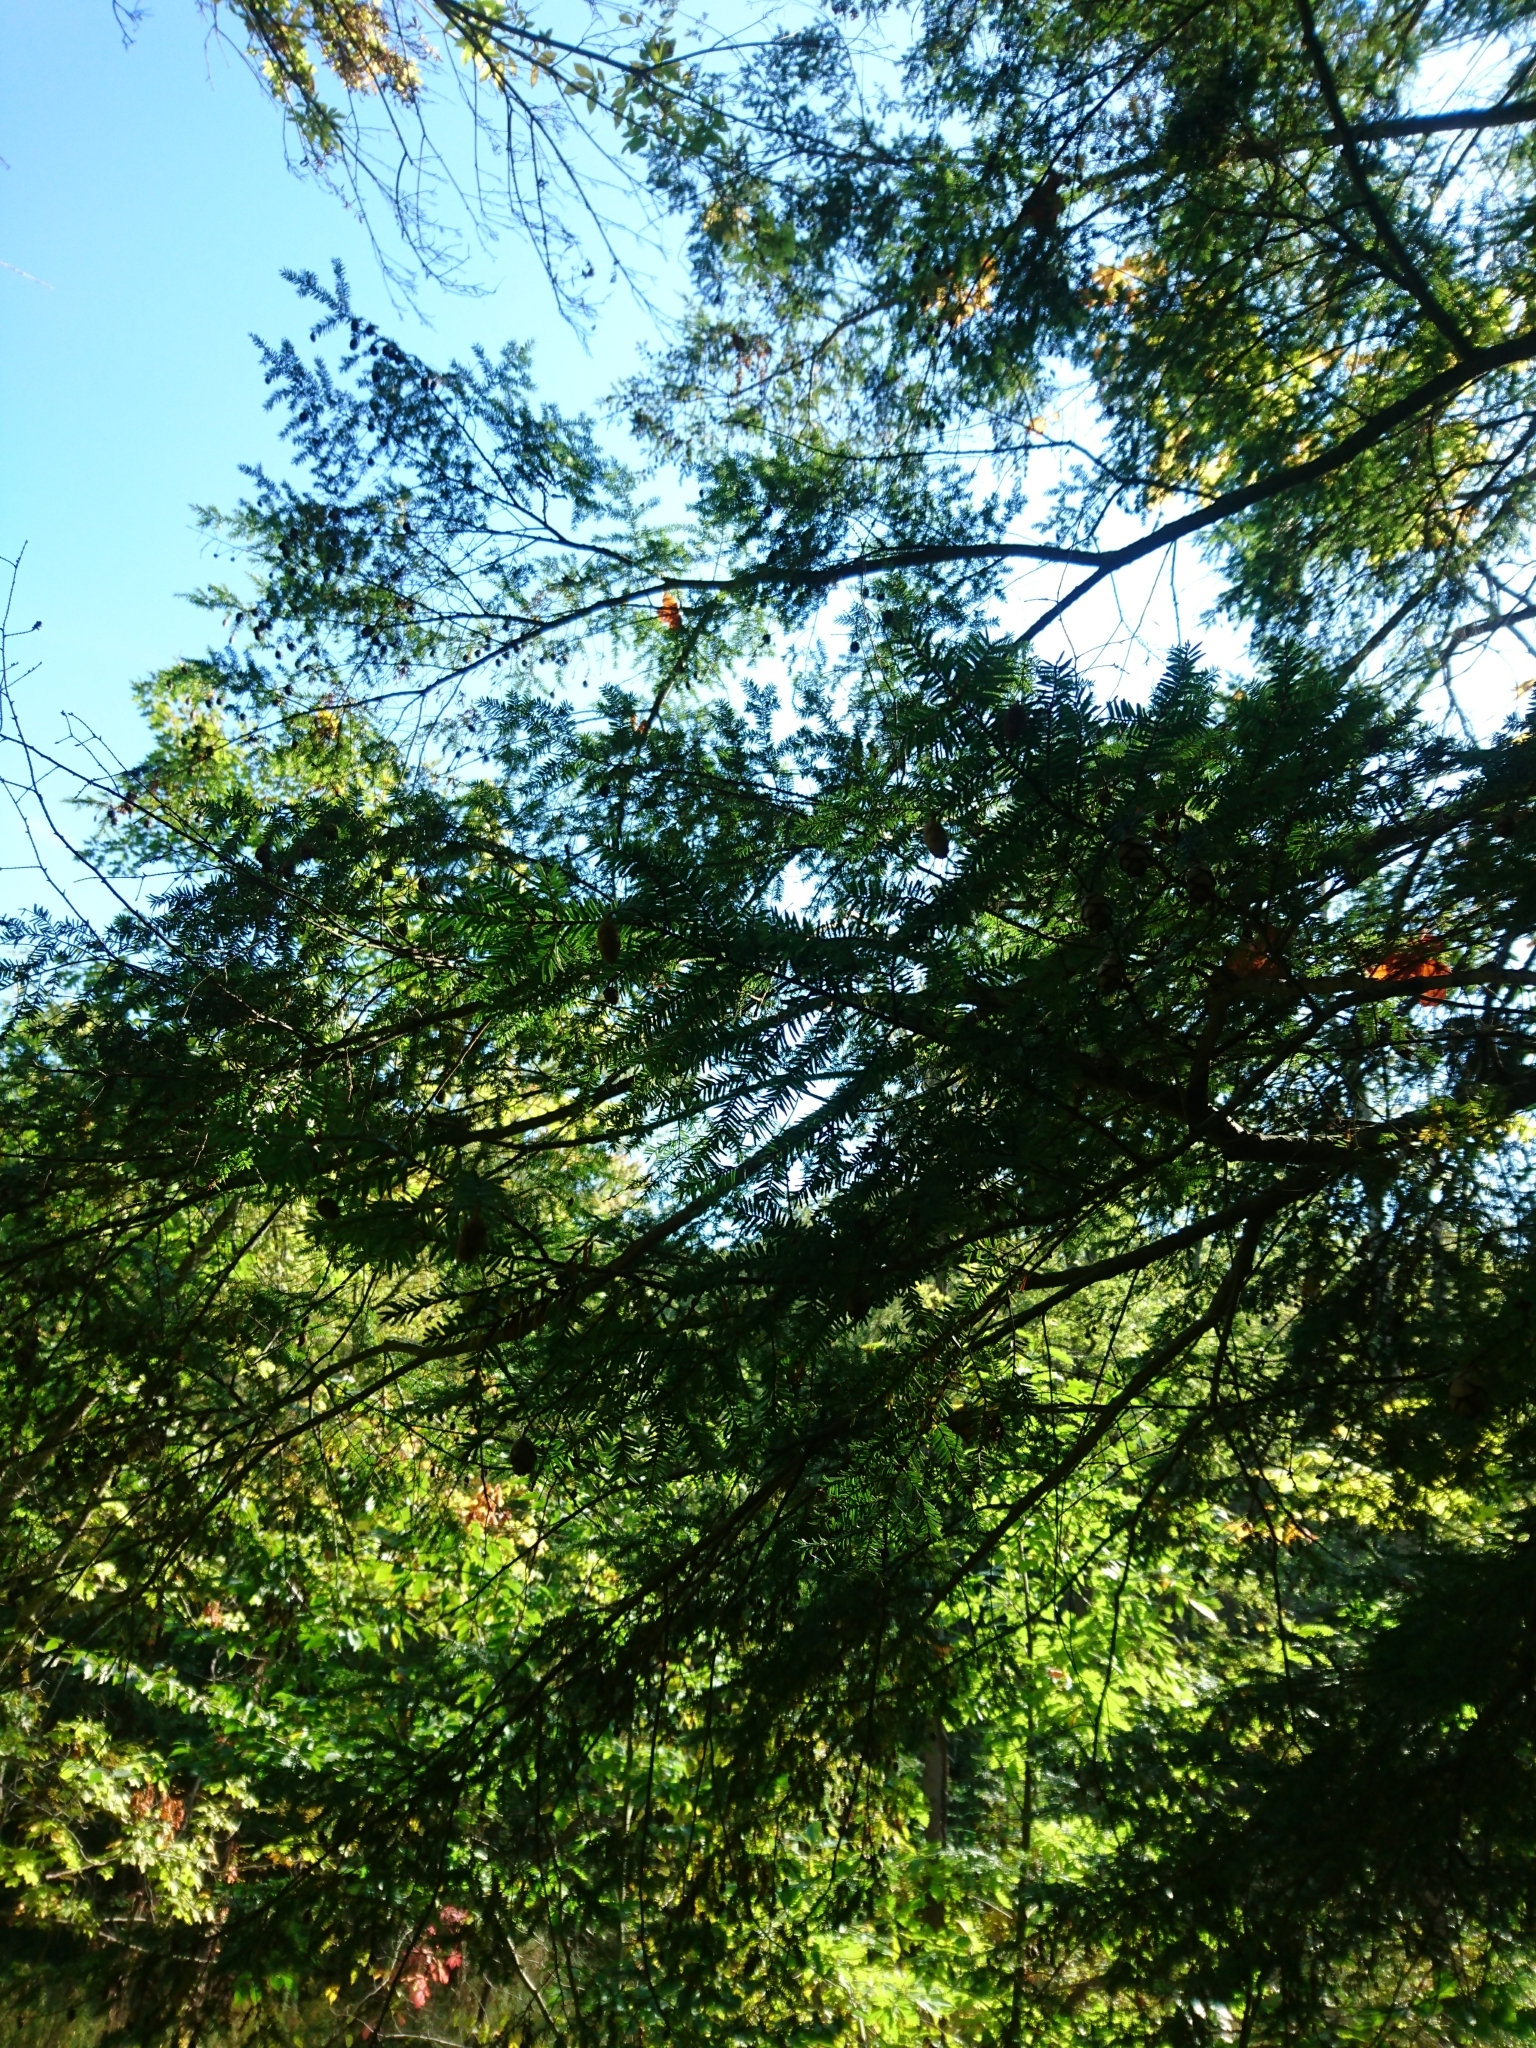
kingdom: Plantae
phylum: Tracheophyta
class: Pinopsida
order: Pinales
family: Pinaceae
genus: Tsuga
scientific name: Tsuga canadensis
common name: Eastern hemlock
